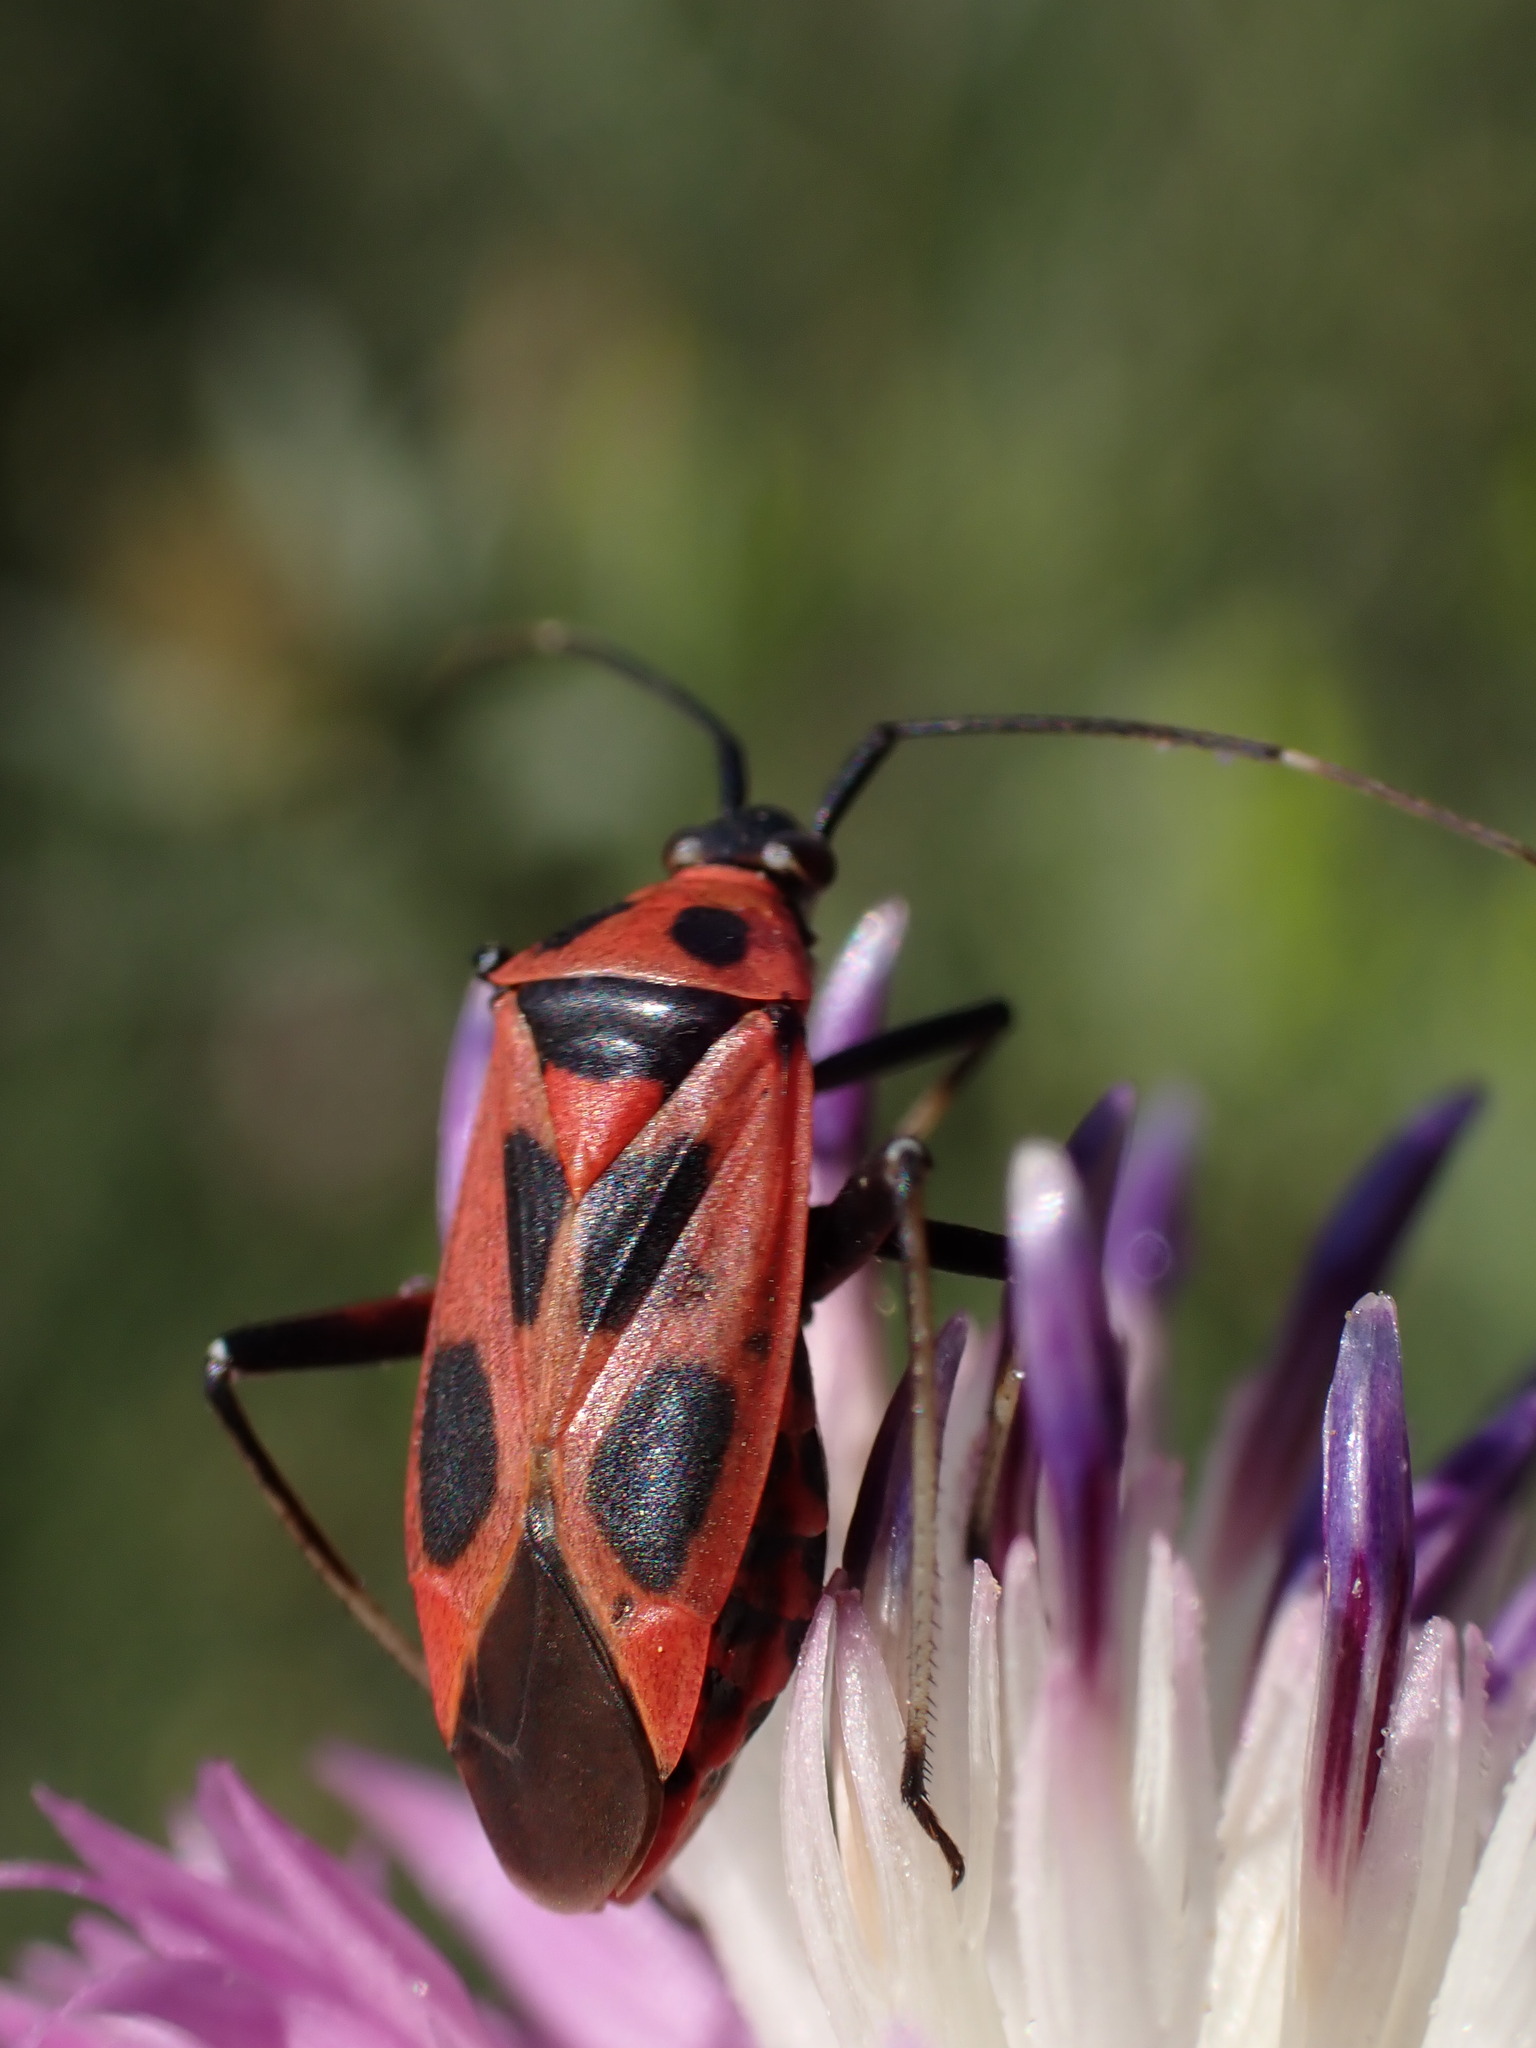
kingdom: Animalia
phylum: Arthropoda
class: Insecta
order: Hemiptera
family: Miridae
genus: Calocoris
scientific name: Calocoris nemoralis
